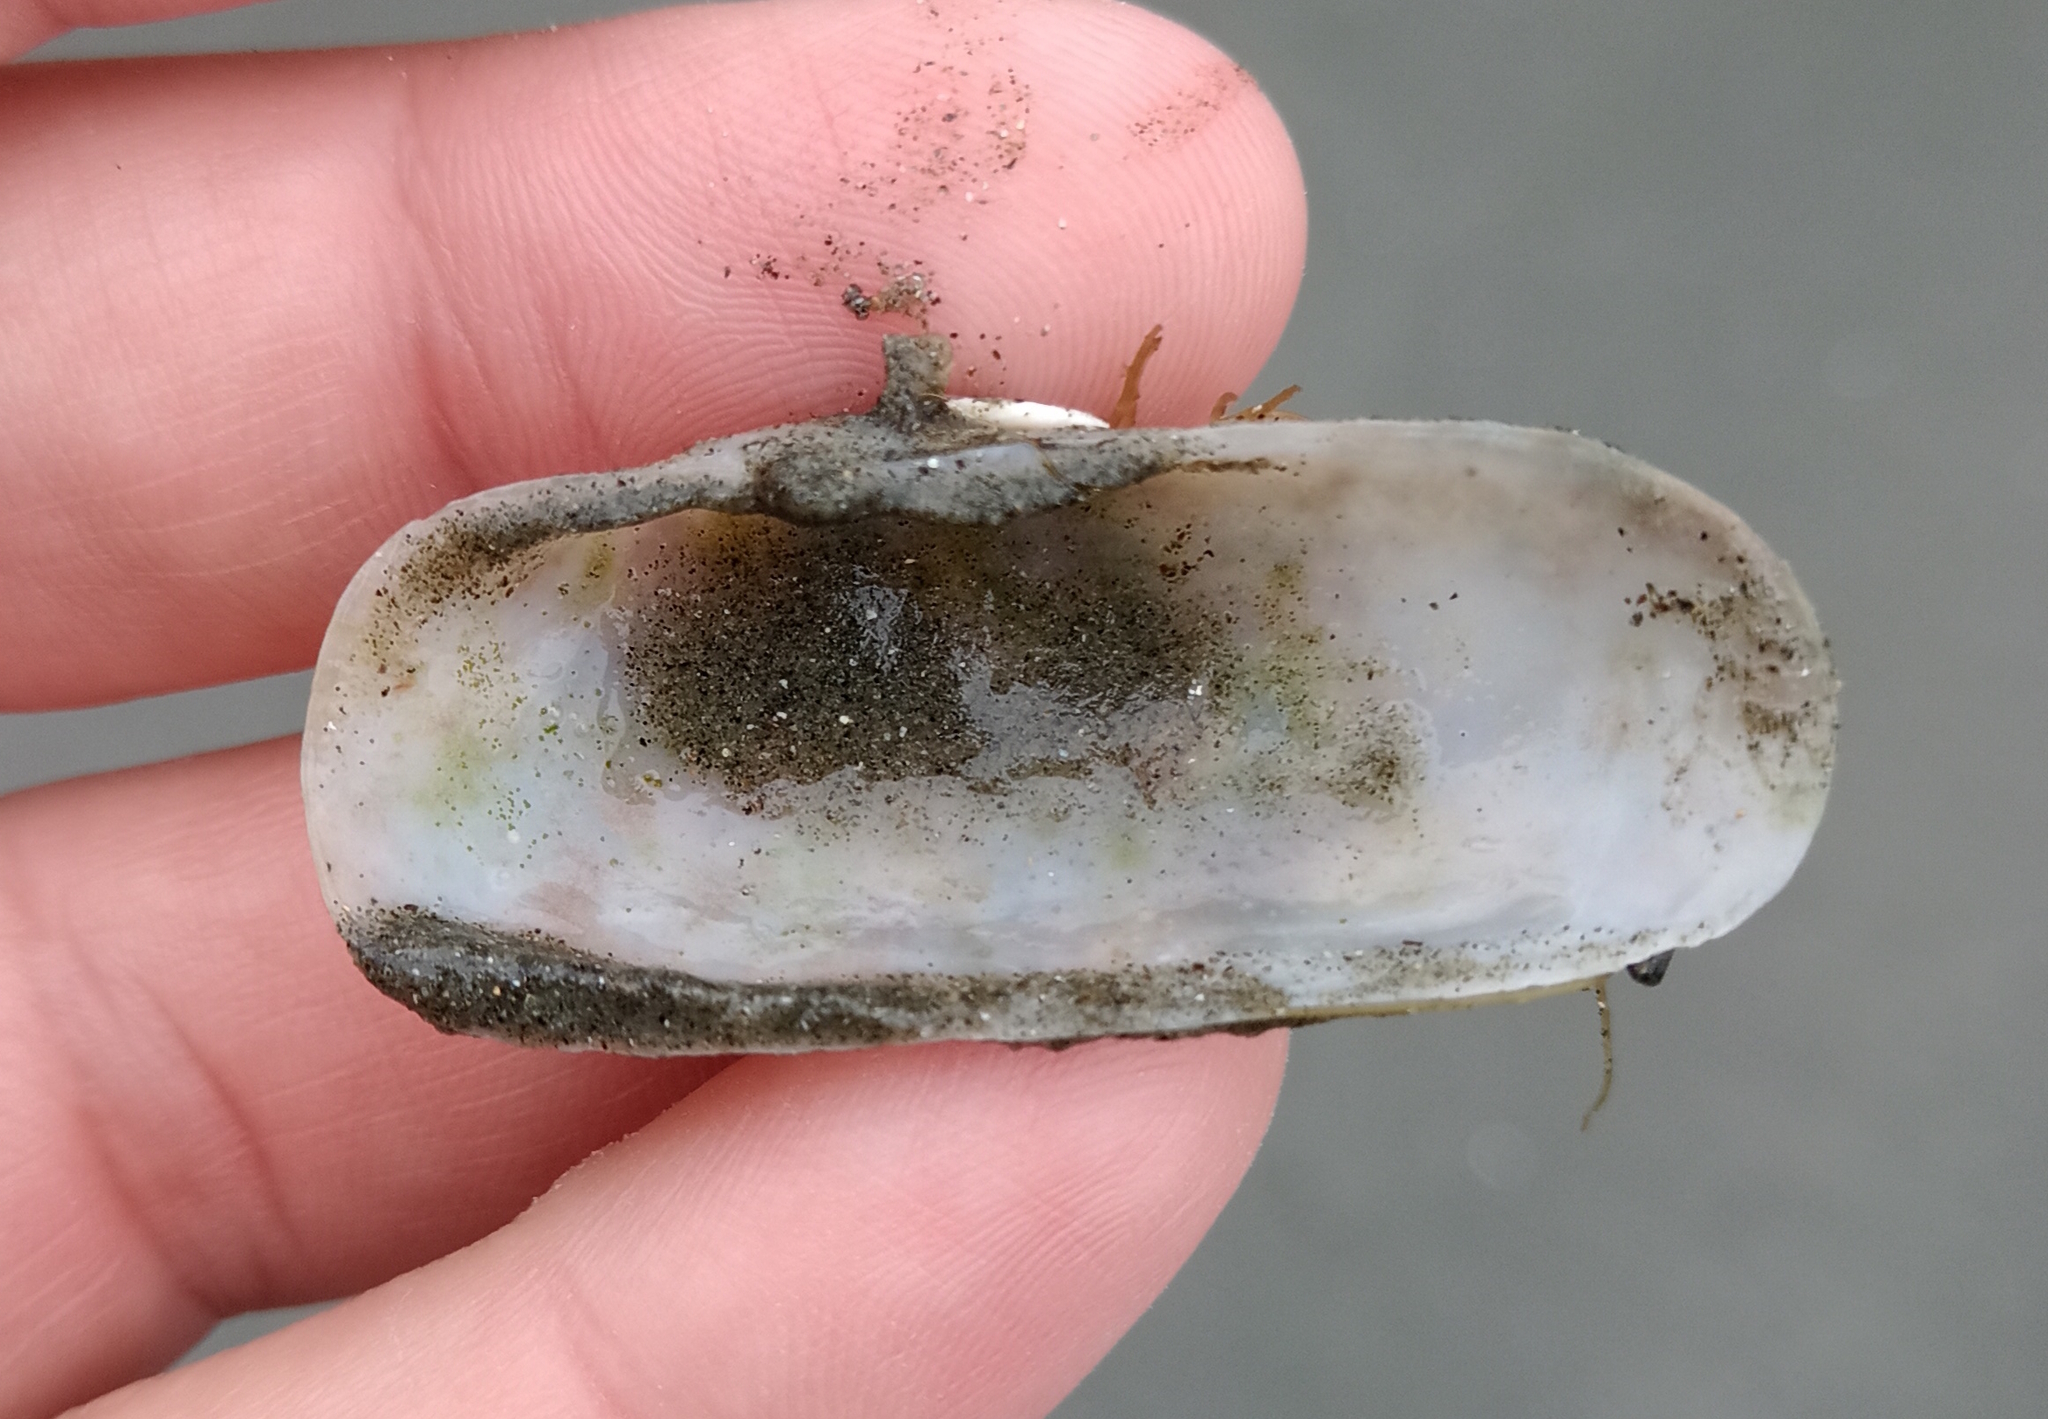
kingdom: Animalia
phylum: Mollusca
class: Bivalvia
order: Cardiida
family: Solecurtidae
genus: Tagelus
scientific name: Tagelus plebeius
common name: Stout tagelus
